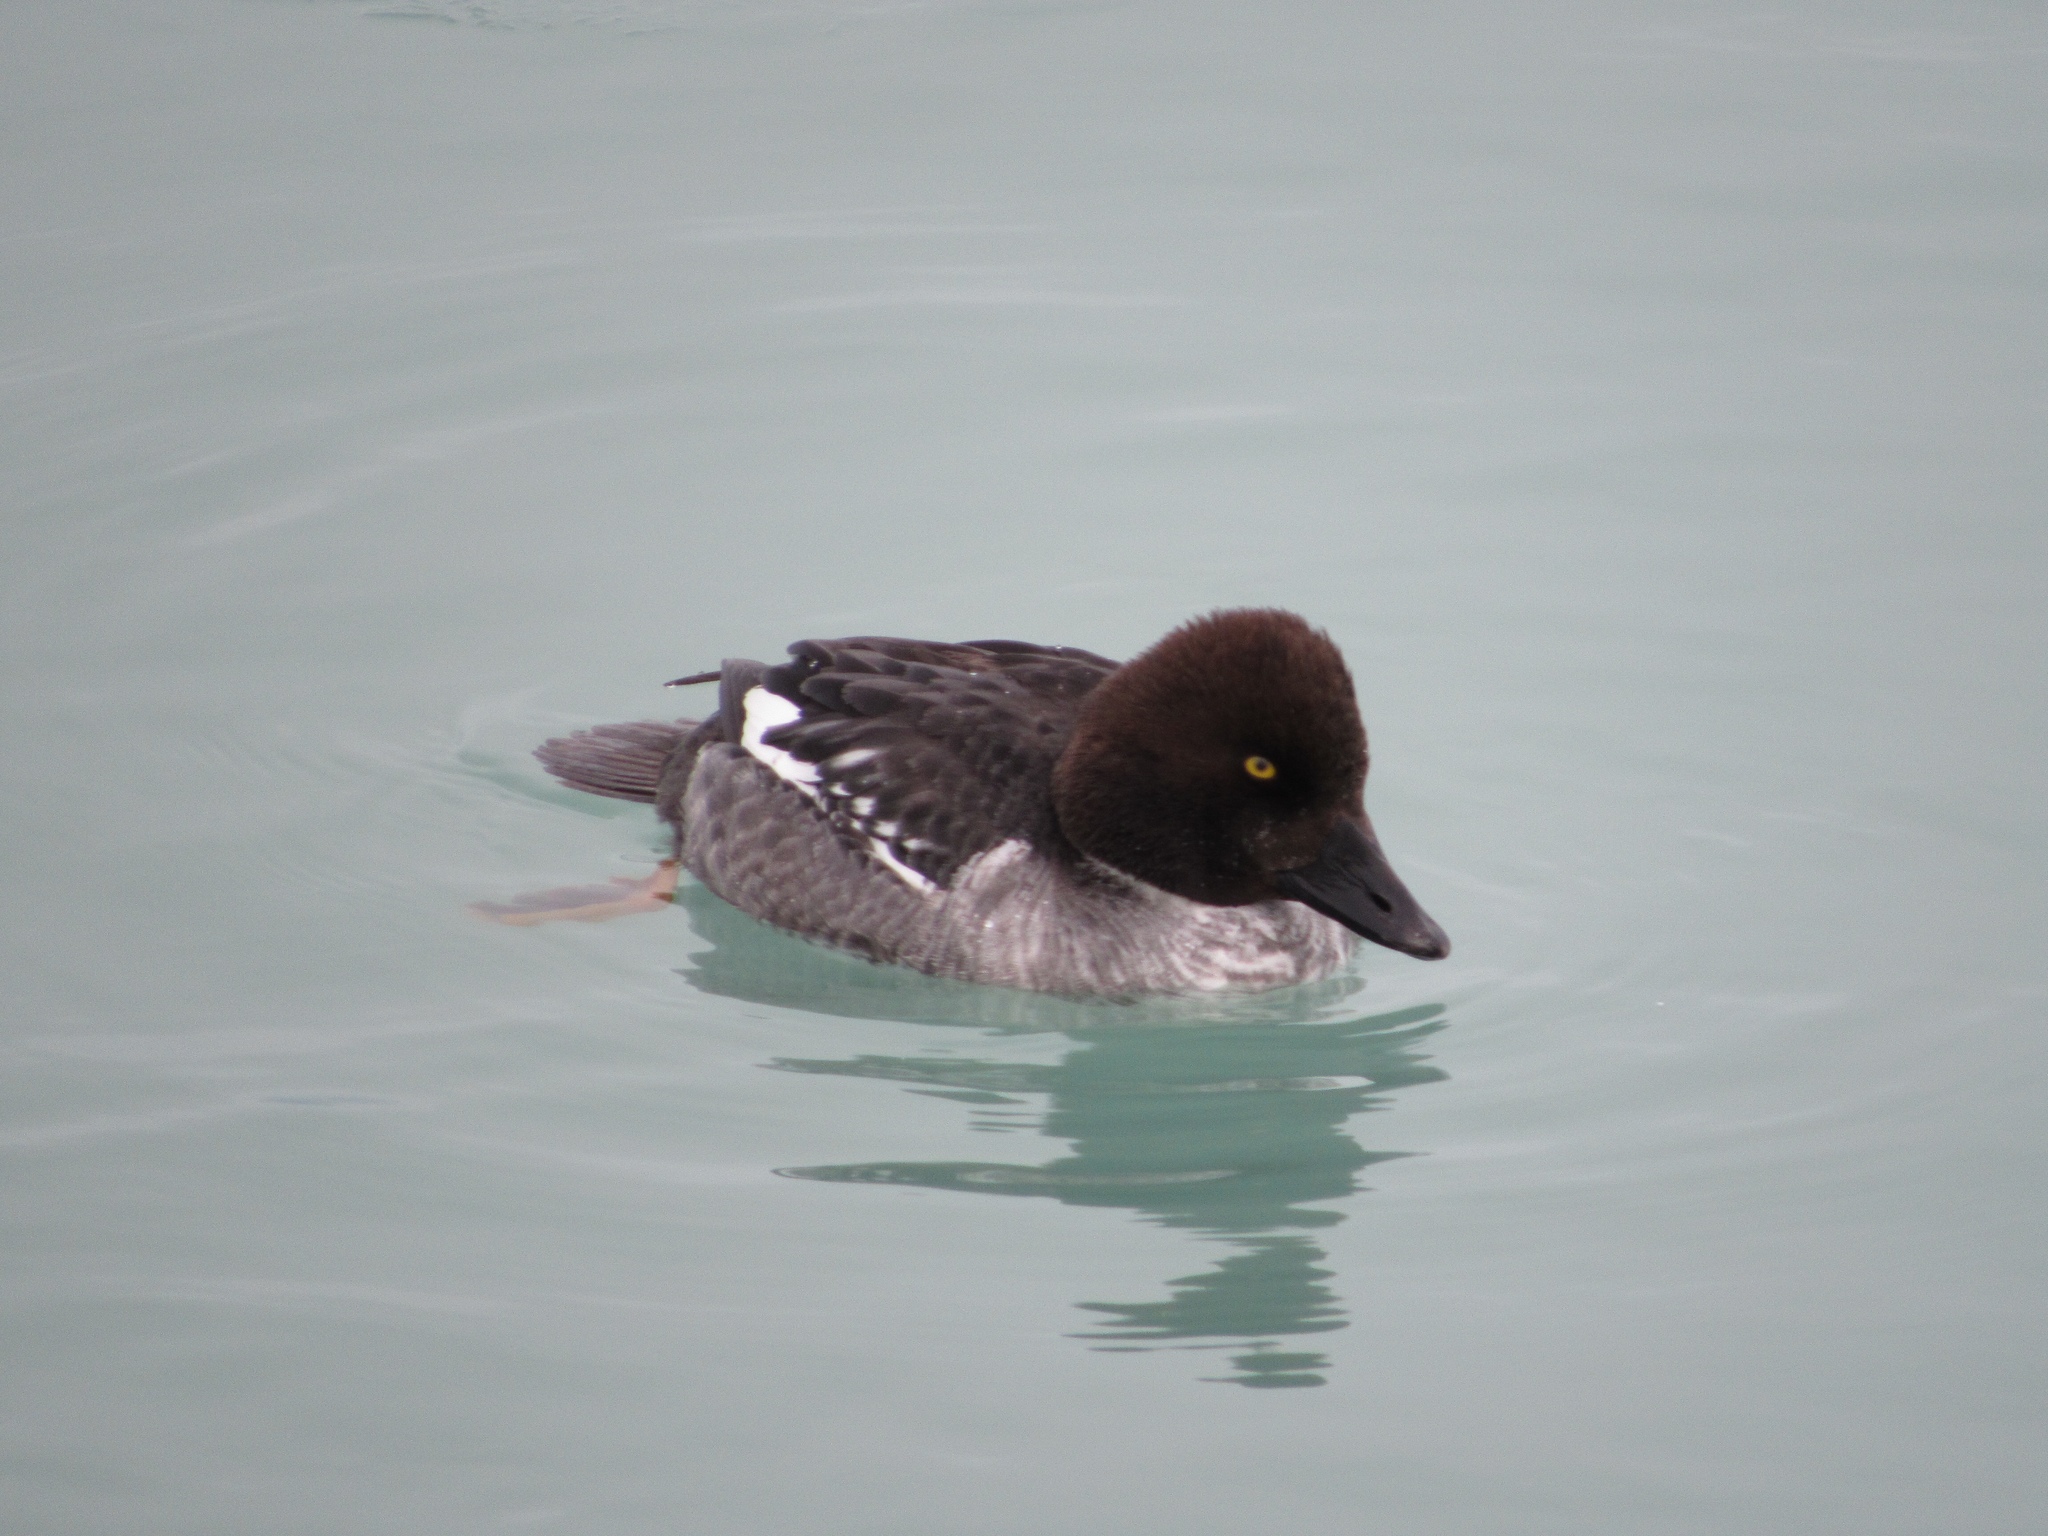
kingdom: Animalia
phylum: Chordata
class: Aves
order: Anseriformes
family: Anatidae
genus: Bucephala
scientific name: Bucephala clangula
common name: Common goldeneye
